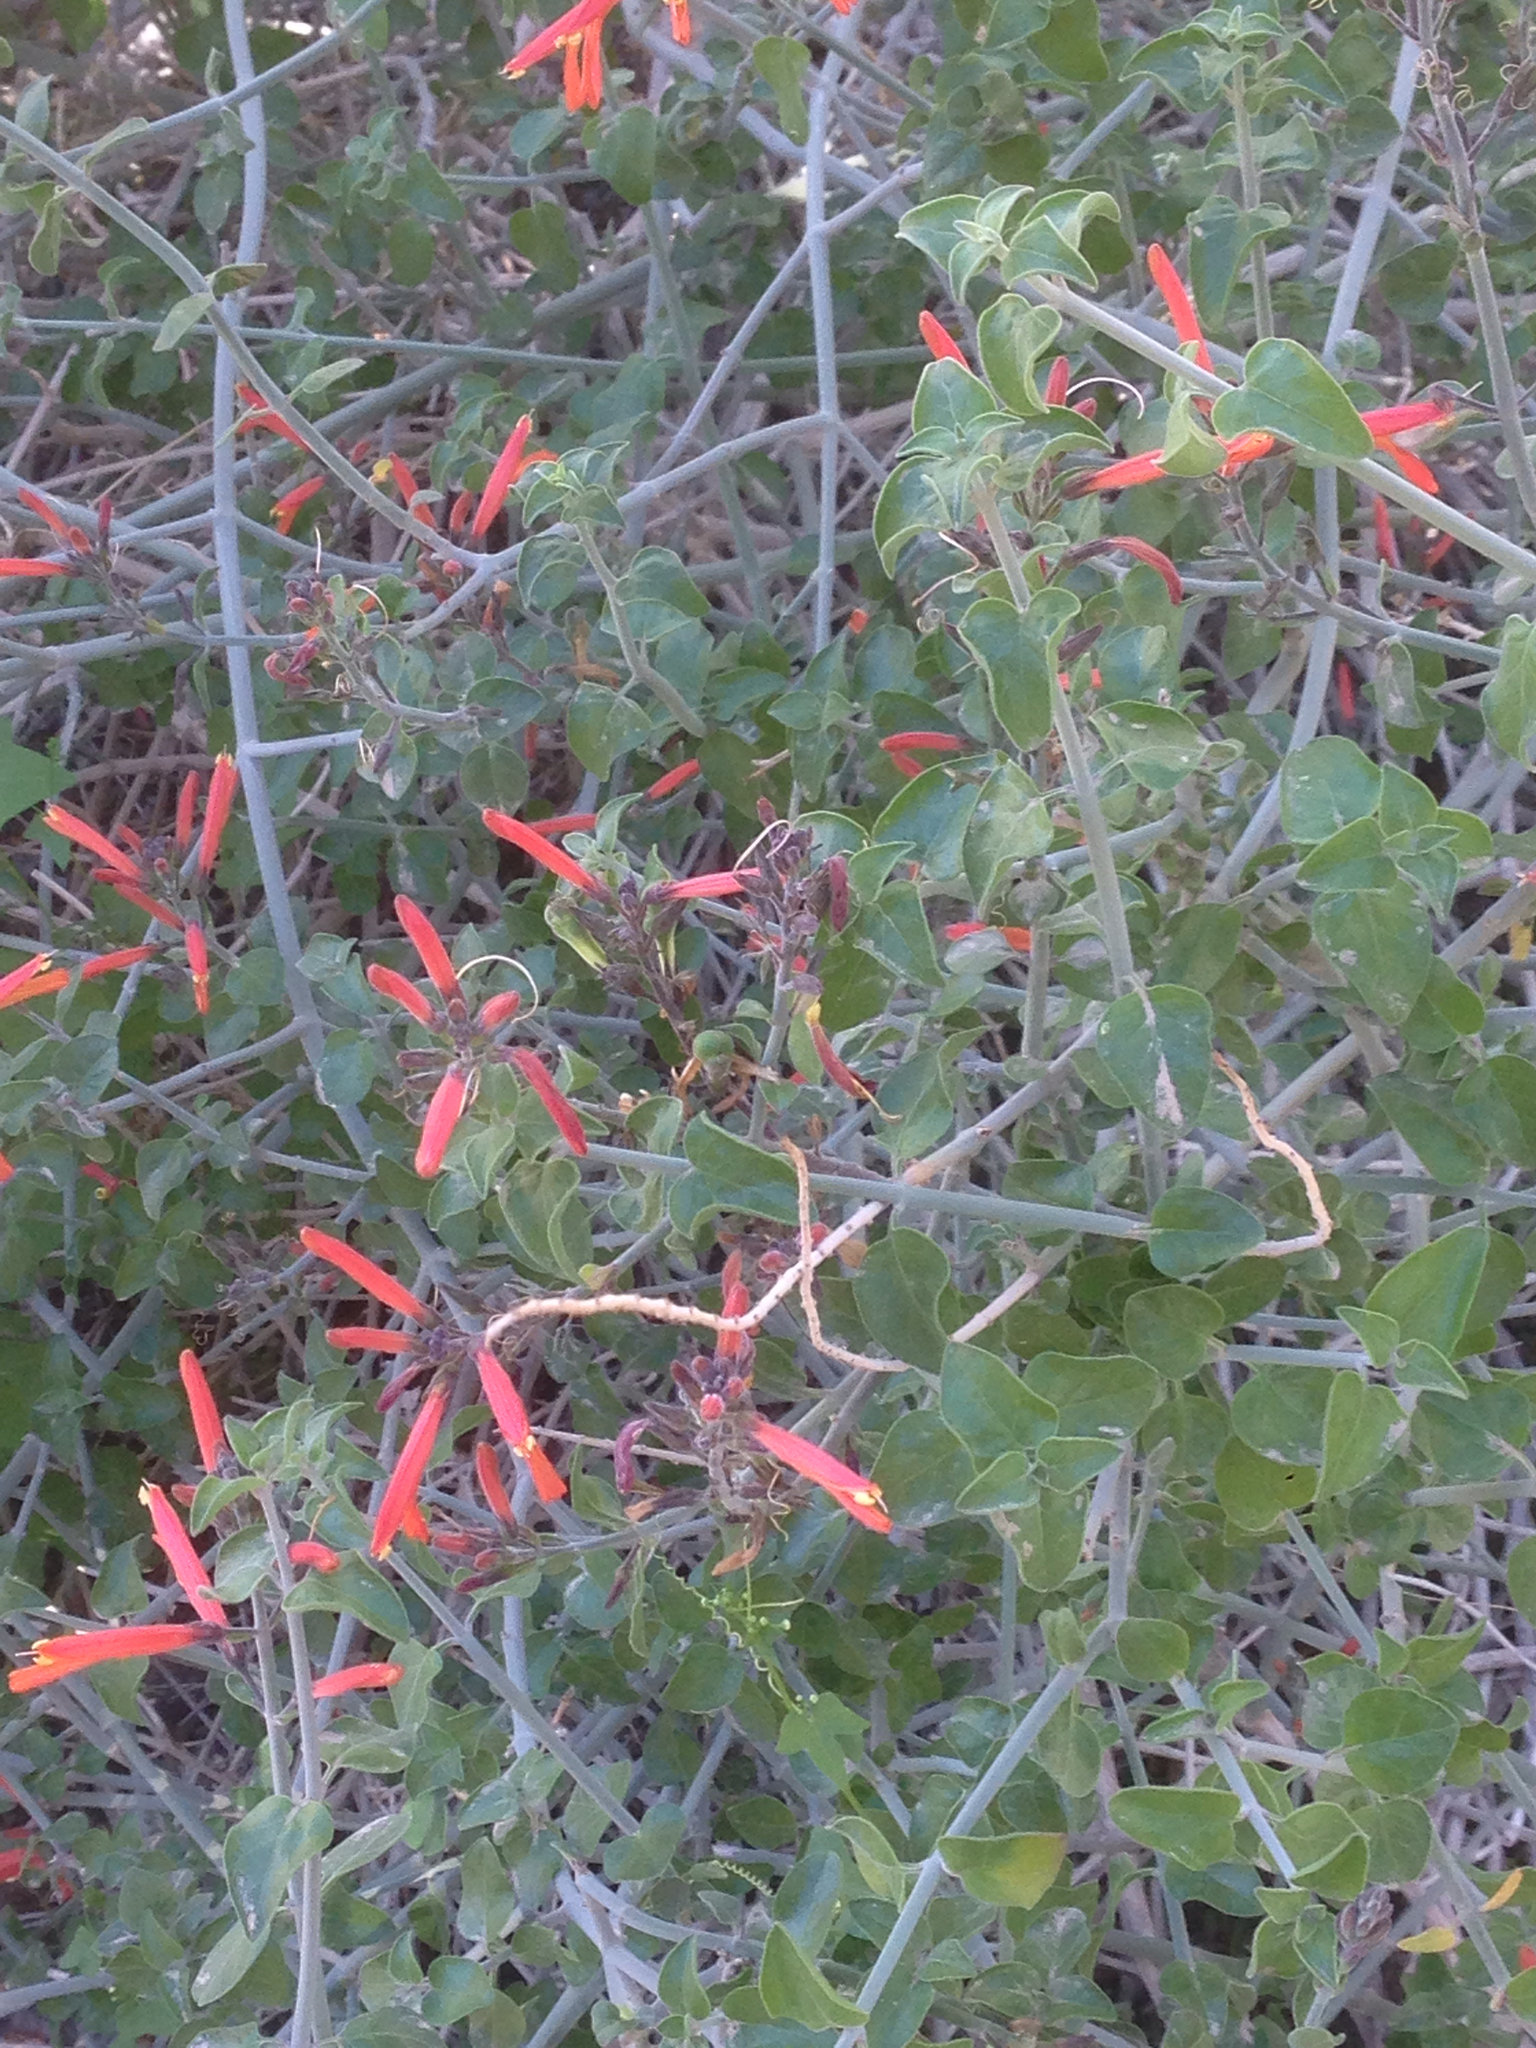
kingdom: Plantae
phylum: Tracheophyta
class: Magnoliopsida
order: Lamiales
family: Acanthaceae
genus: Justicia
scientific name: Justicia californica
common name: Chuparosa-honeysuckle
